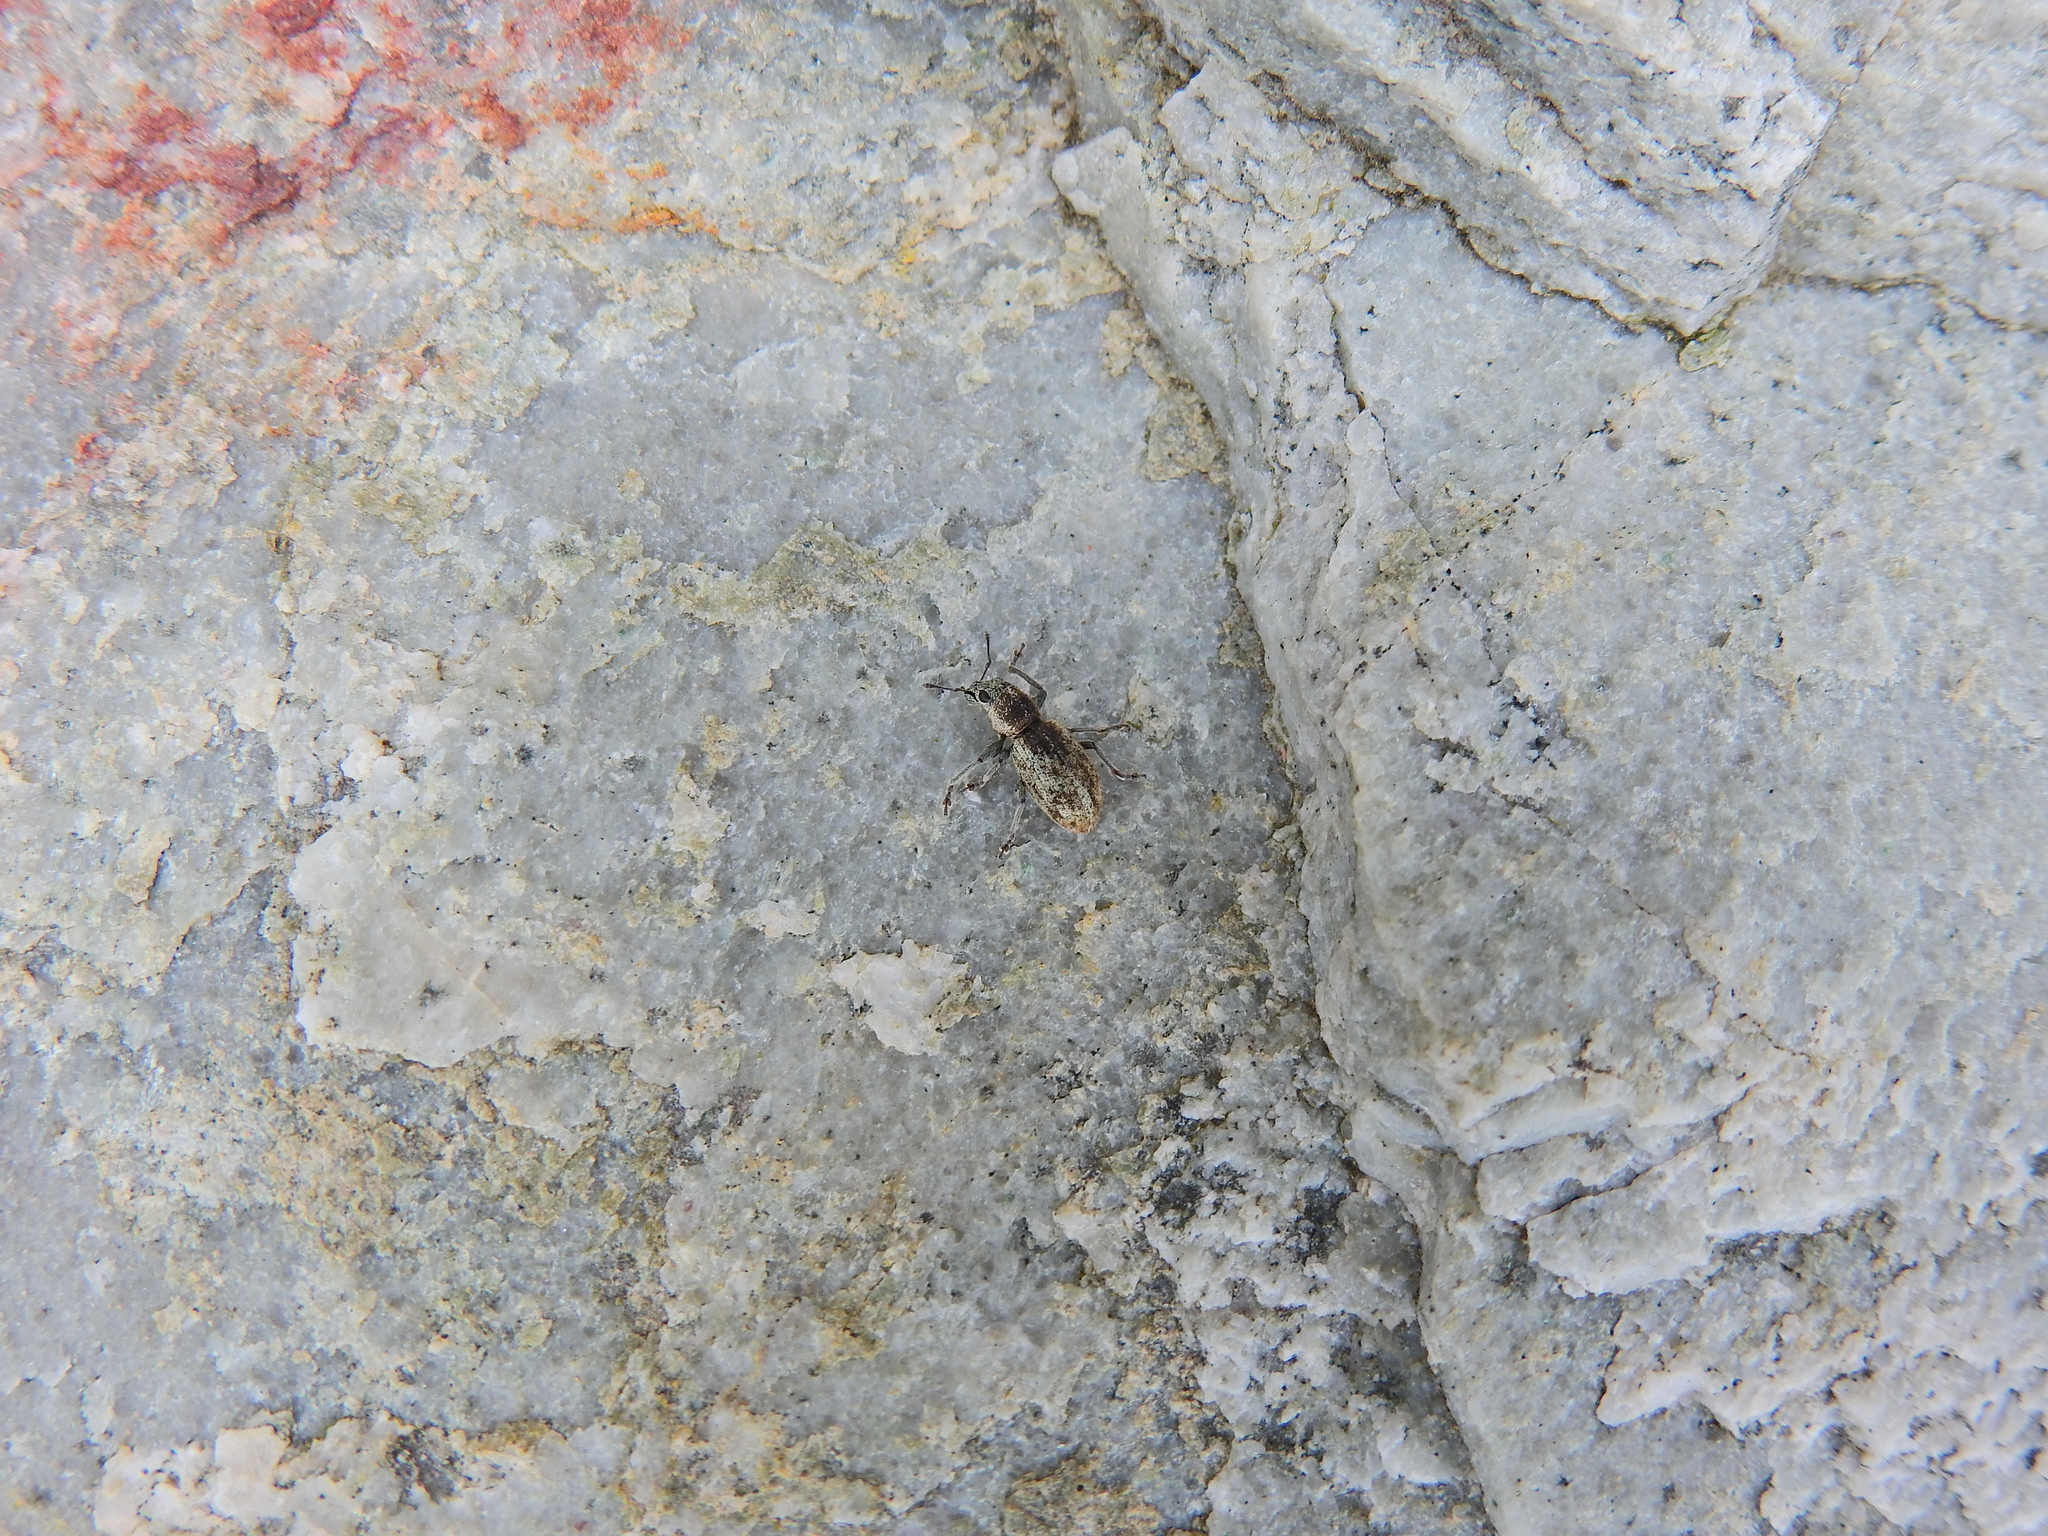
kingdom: Animalia
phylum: Arthropoda
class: Insecta
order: Coleoptera
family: Curculionidae
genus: Andrion
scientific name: Andrion regensteinense
